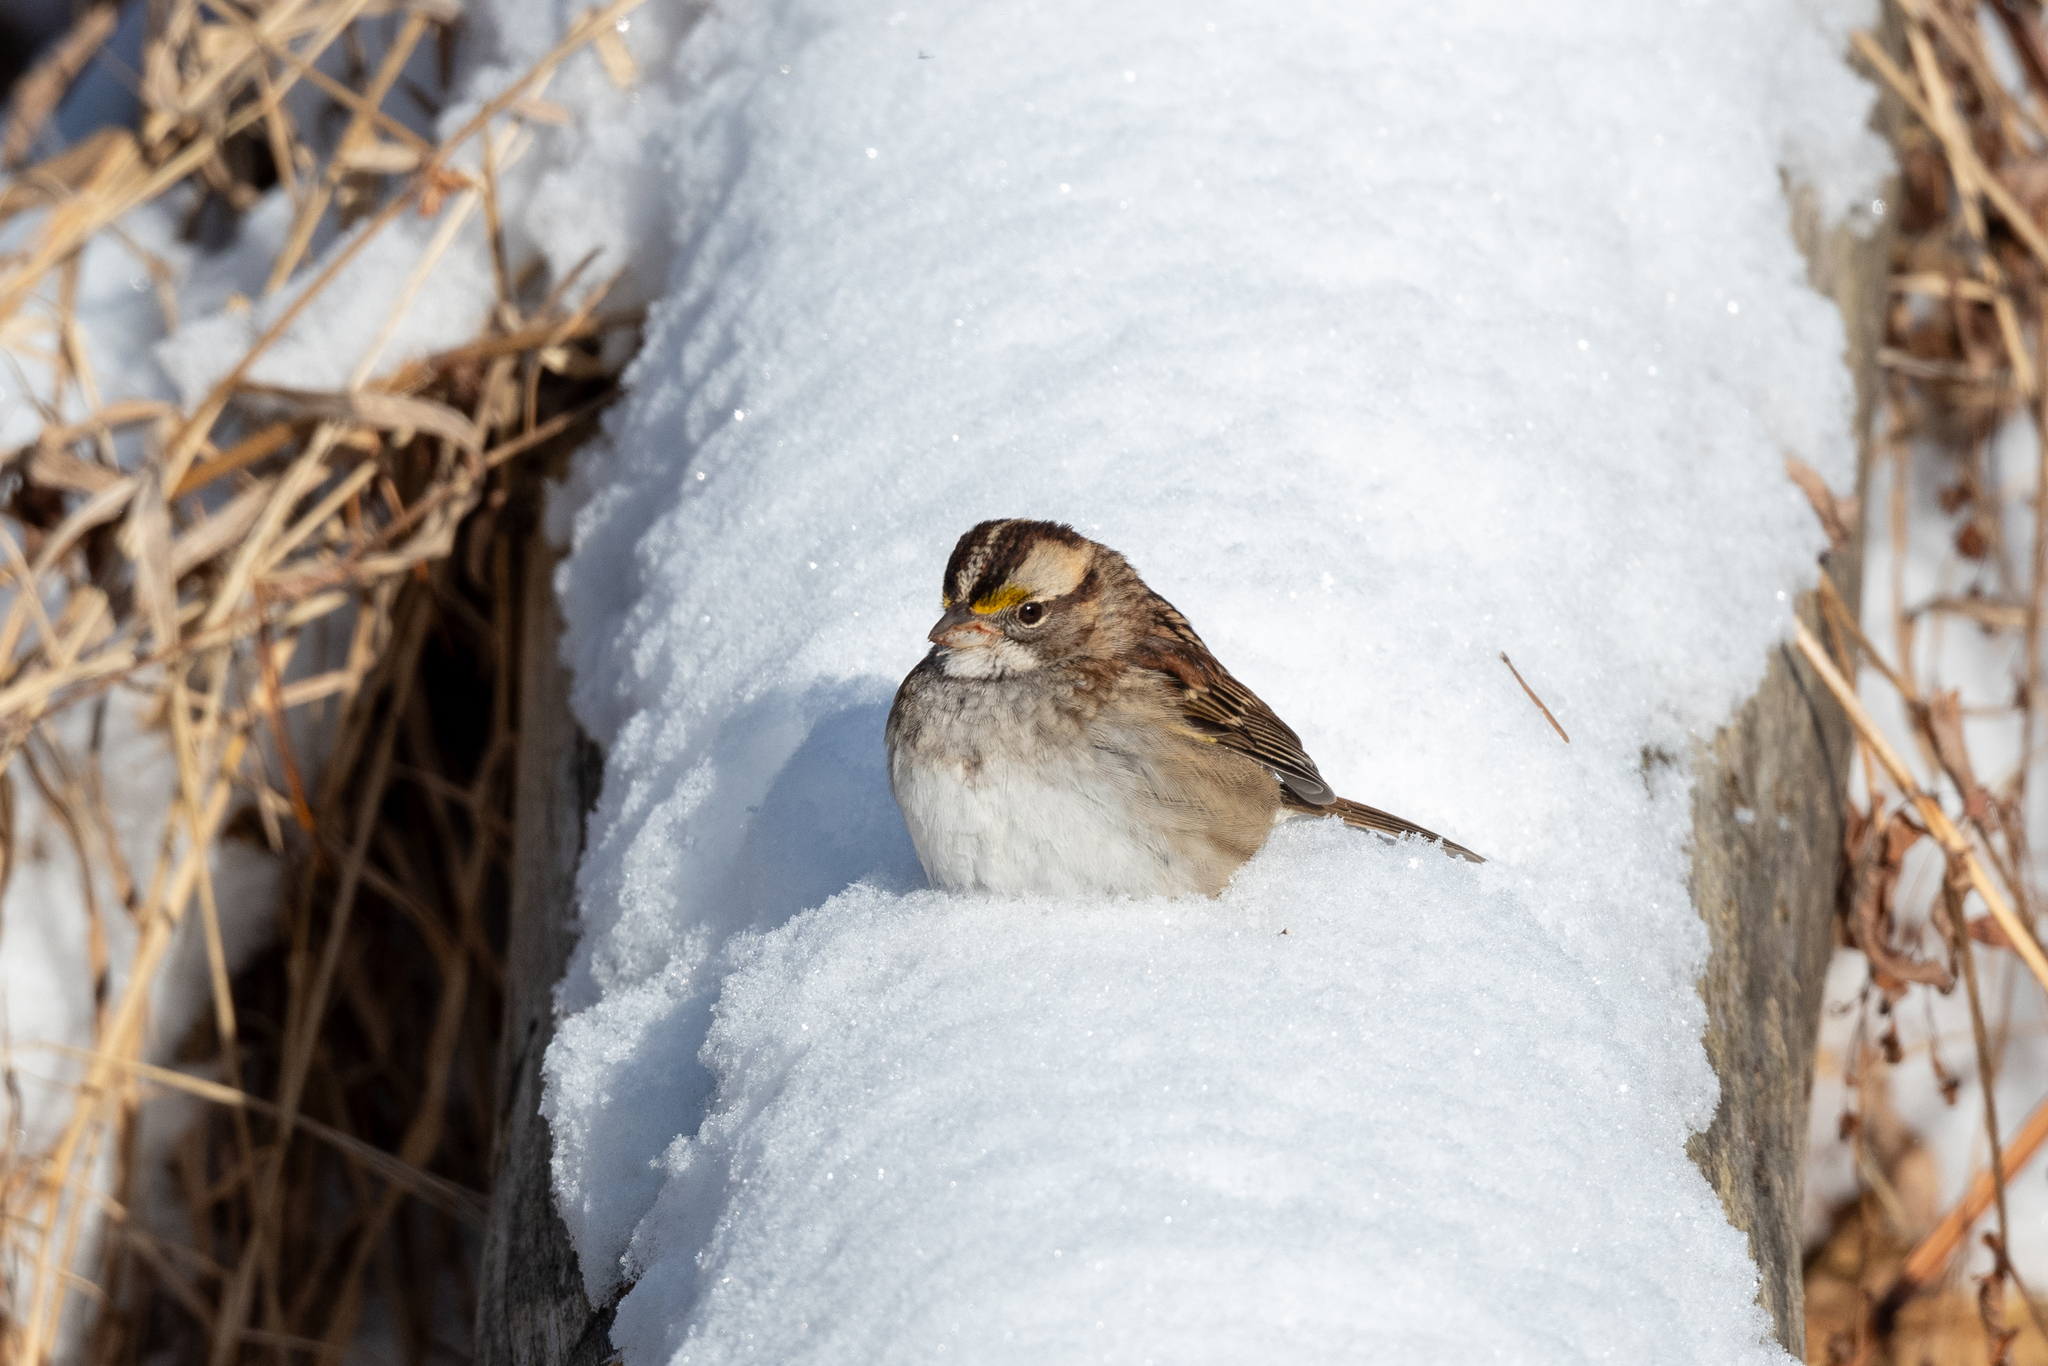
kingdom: Animalia
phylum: Chordata
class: Aves
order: Passeriformes
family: Passerellidae
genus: Zonotrichia
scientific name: Zonotrichia albicollis
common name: White-throated sparrow
